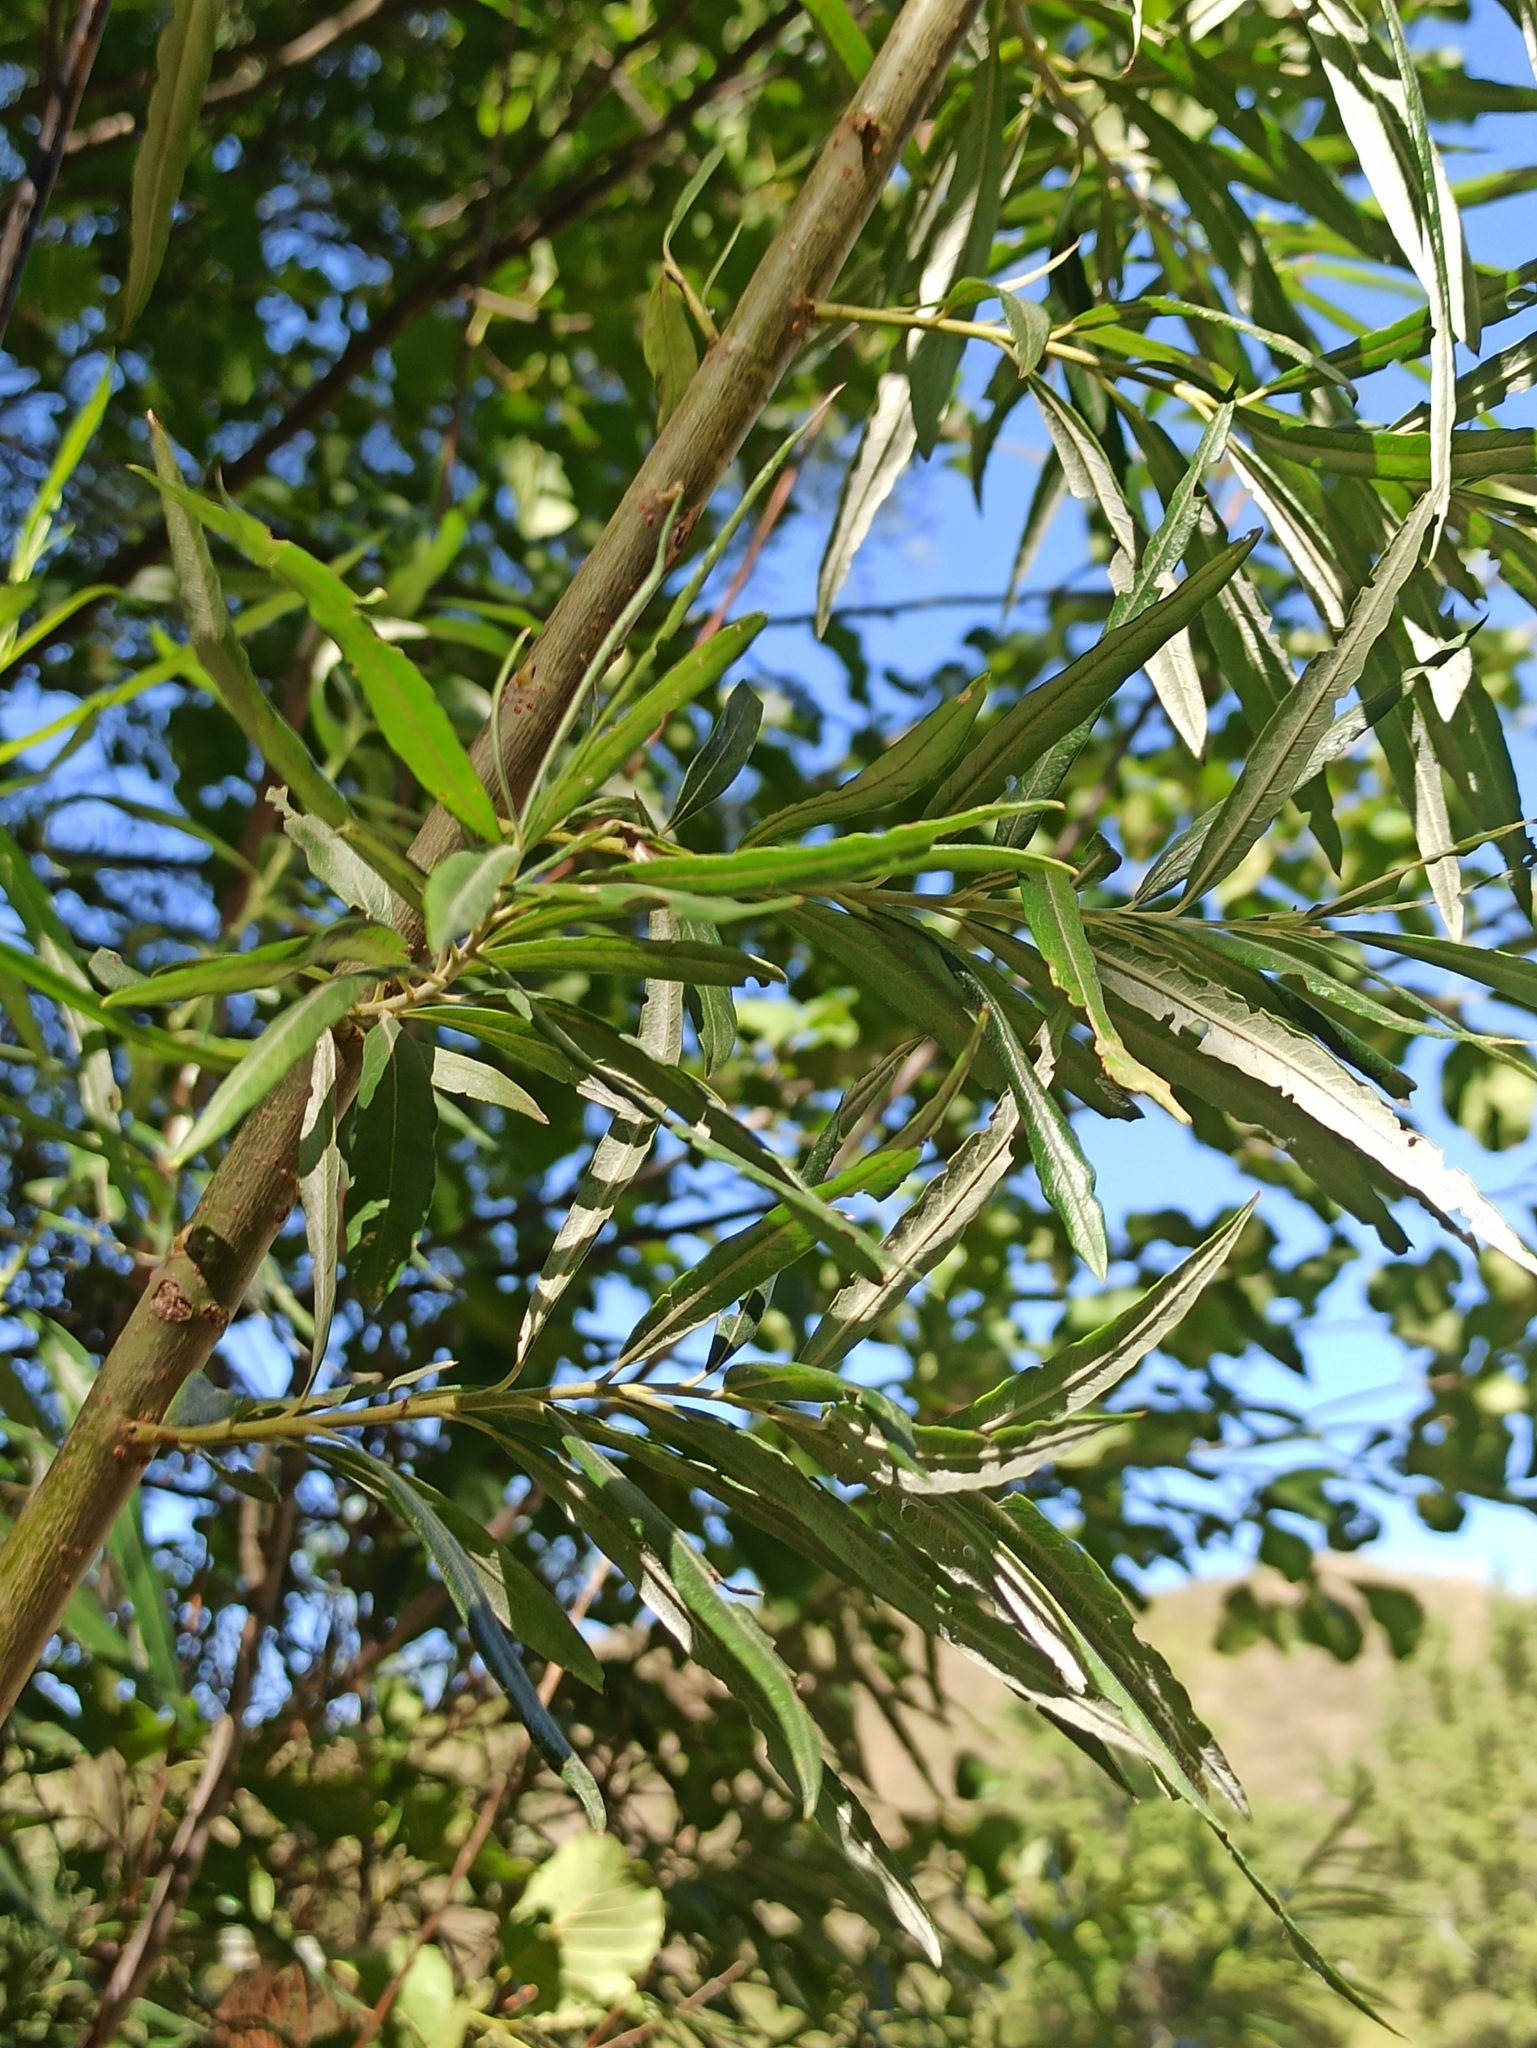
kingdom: Plantae
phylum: Tracheophyta
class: Magnoliopsida
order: Malpighiales
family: Salicaceae
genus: Salix
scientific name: Salix viminalis
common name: Osier
